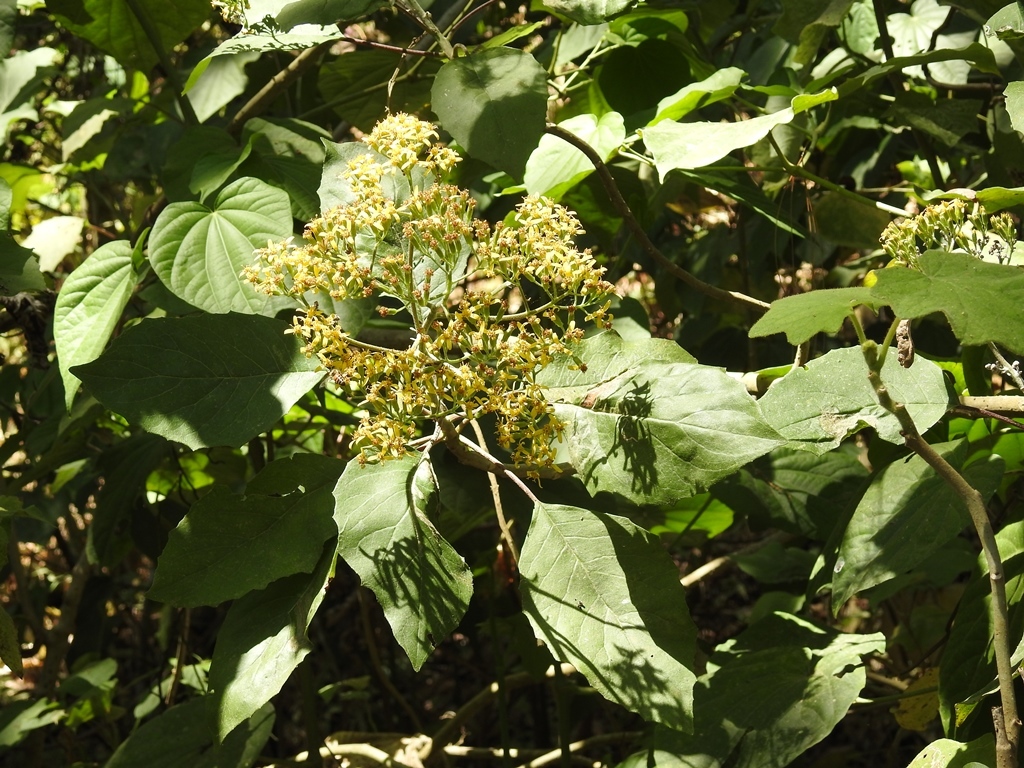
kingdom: Plantae
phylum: Tracheophyta
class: Magnoliopsida
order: Asterales
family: Asteraceae
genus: Roldana
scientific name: Roldana heterogama
